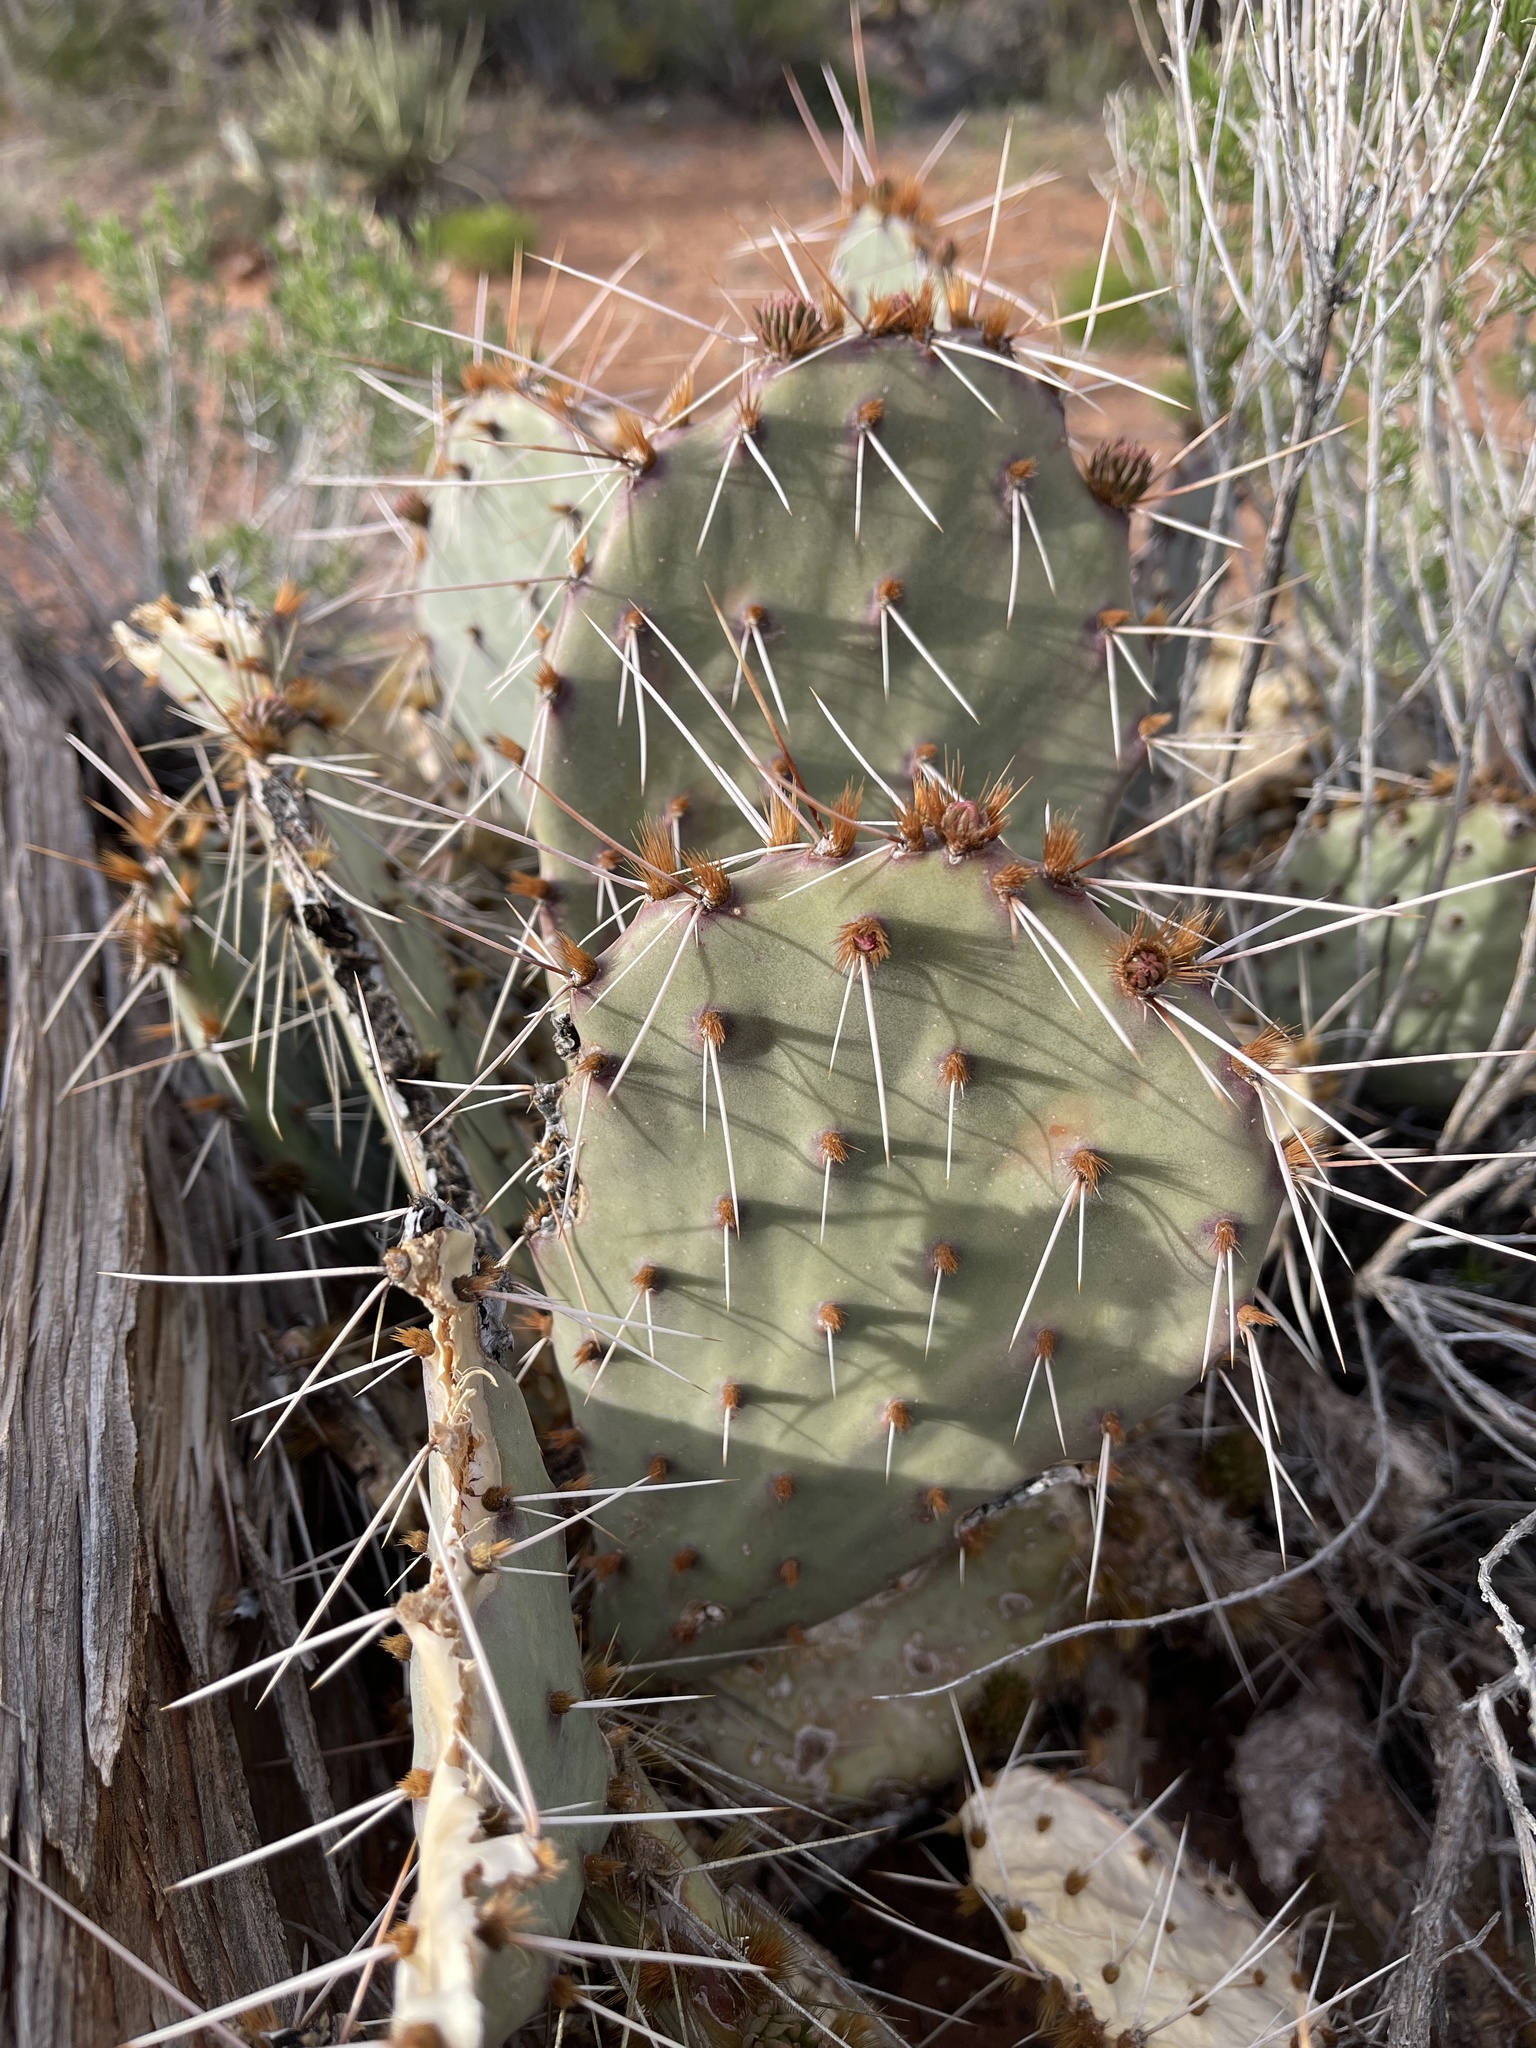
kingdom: Plantae
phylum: Tracheophyta
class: Magnoliopsida
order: Caryophyllales
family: Cactaceae
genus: Opuntia
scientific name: Opuntia phaeacantha
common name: New mexico prickly-pear
